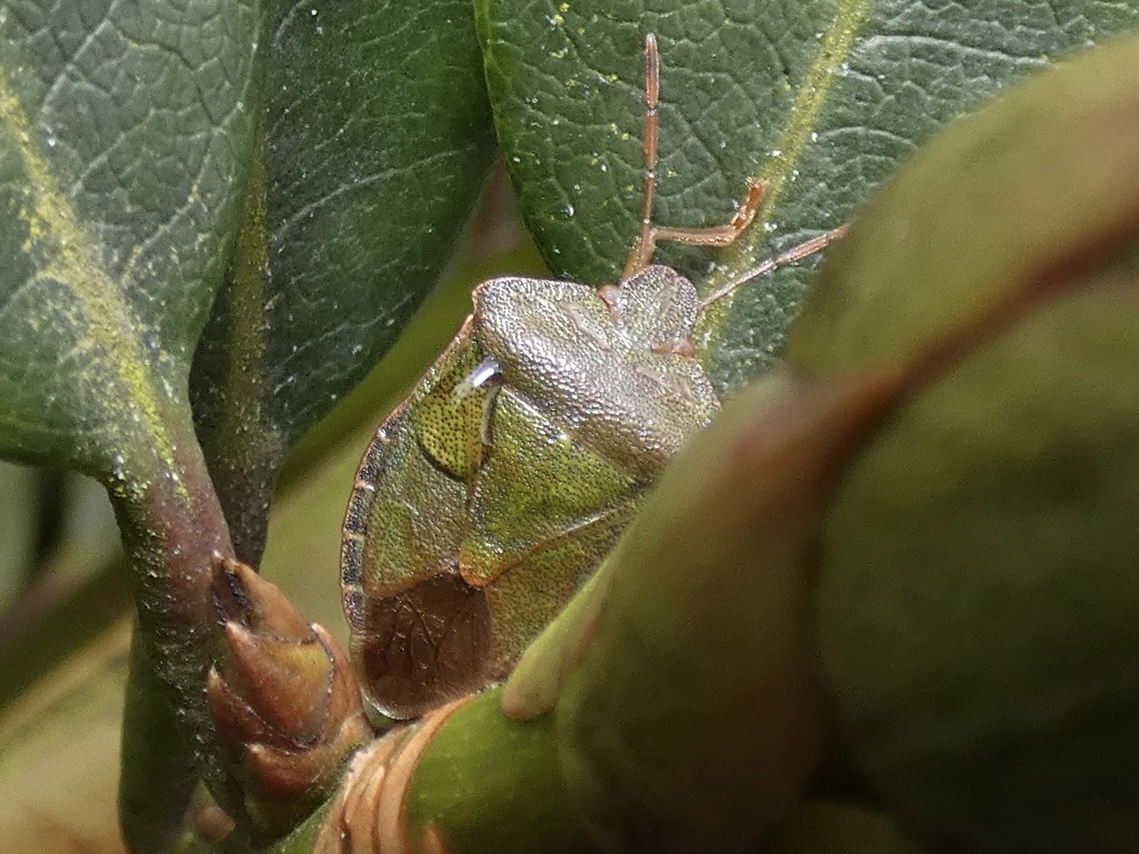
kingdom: Animalia
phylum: Arthropoda
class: Insecta
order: Hemiptera
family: Pentatomidae
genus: Palomena
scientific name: Palomena prasina
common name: Green shieldbug
